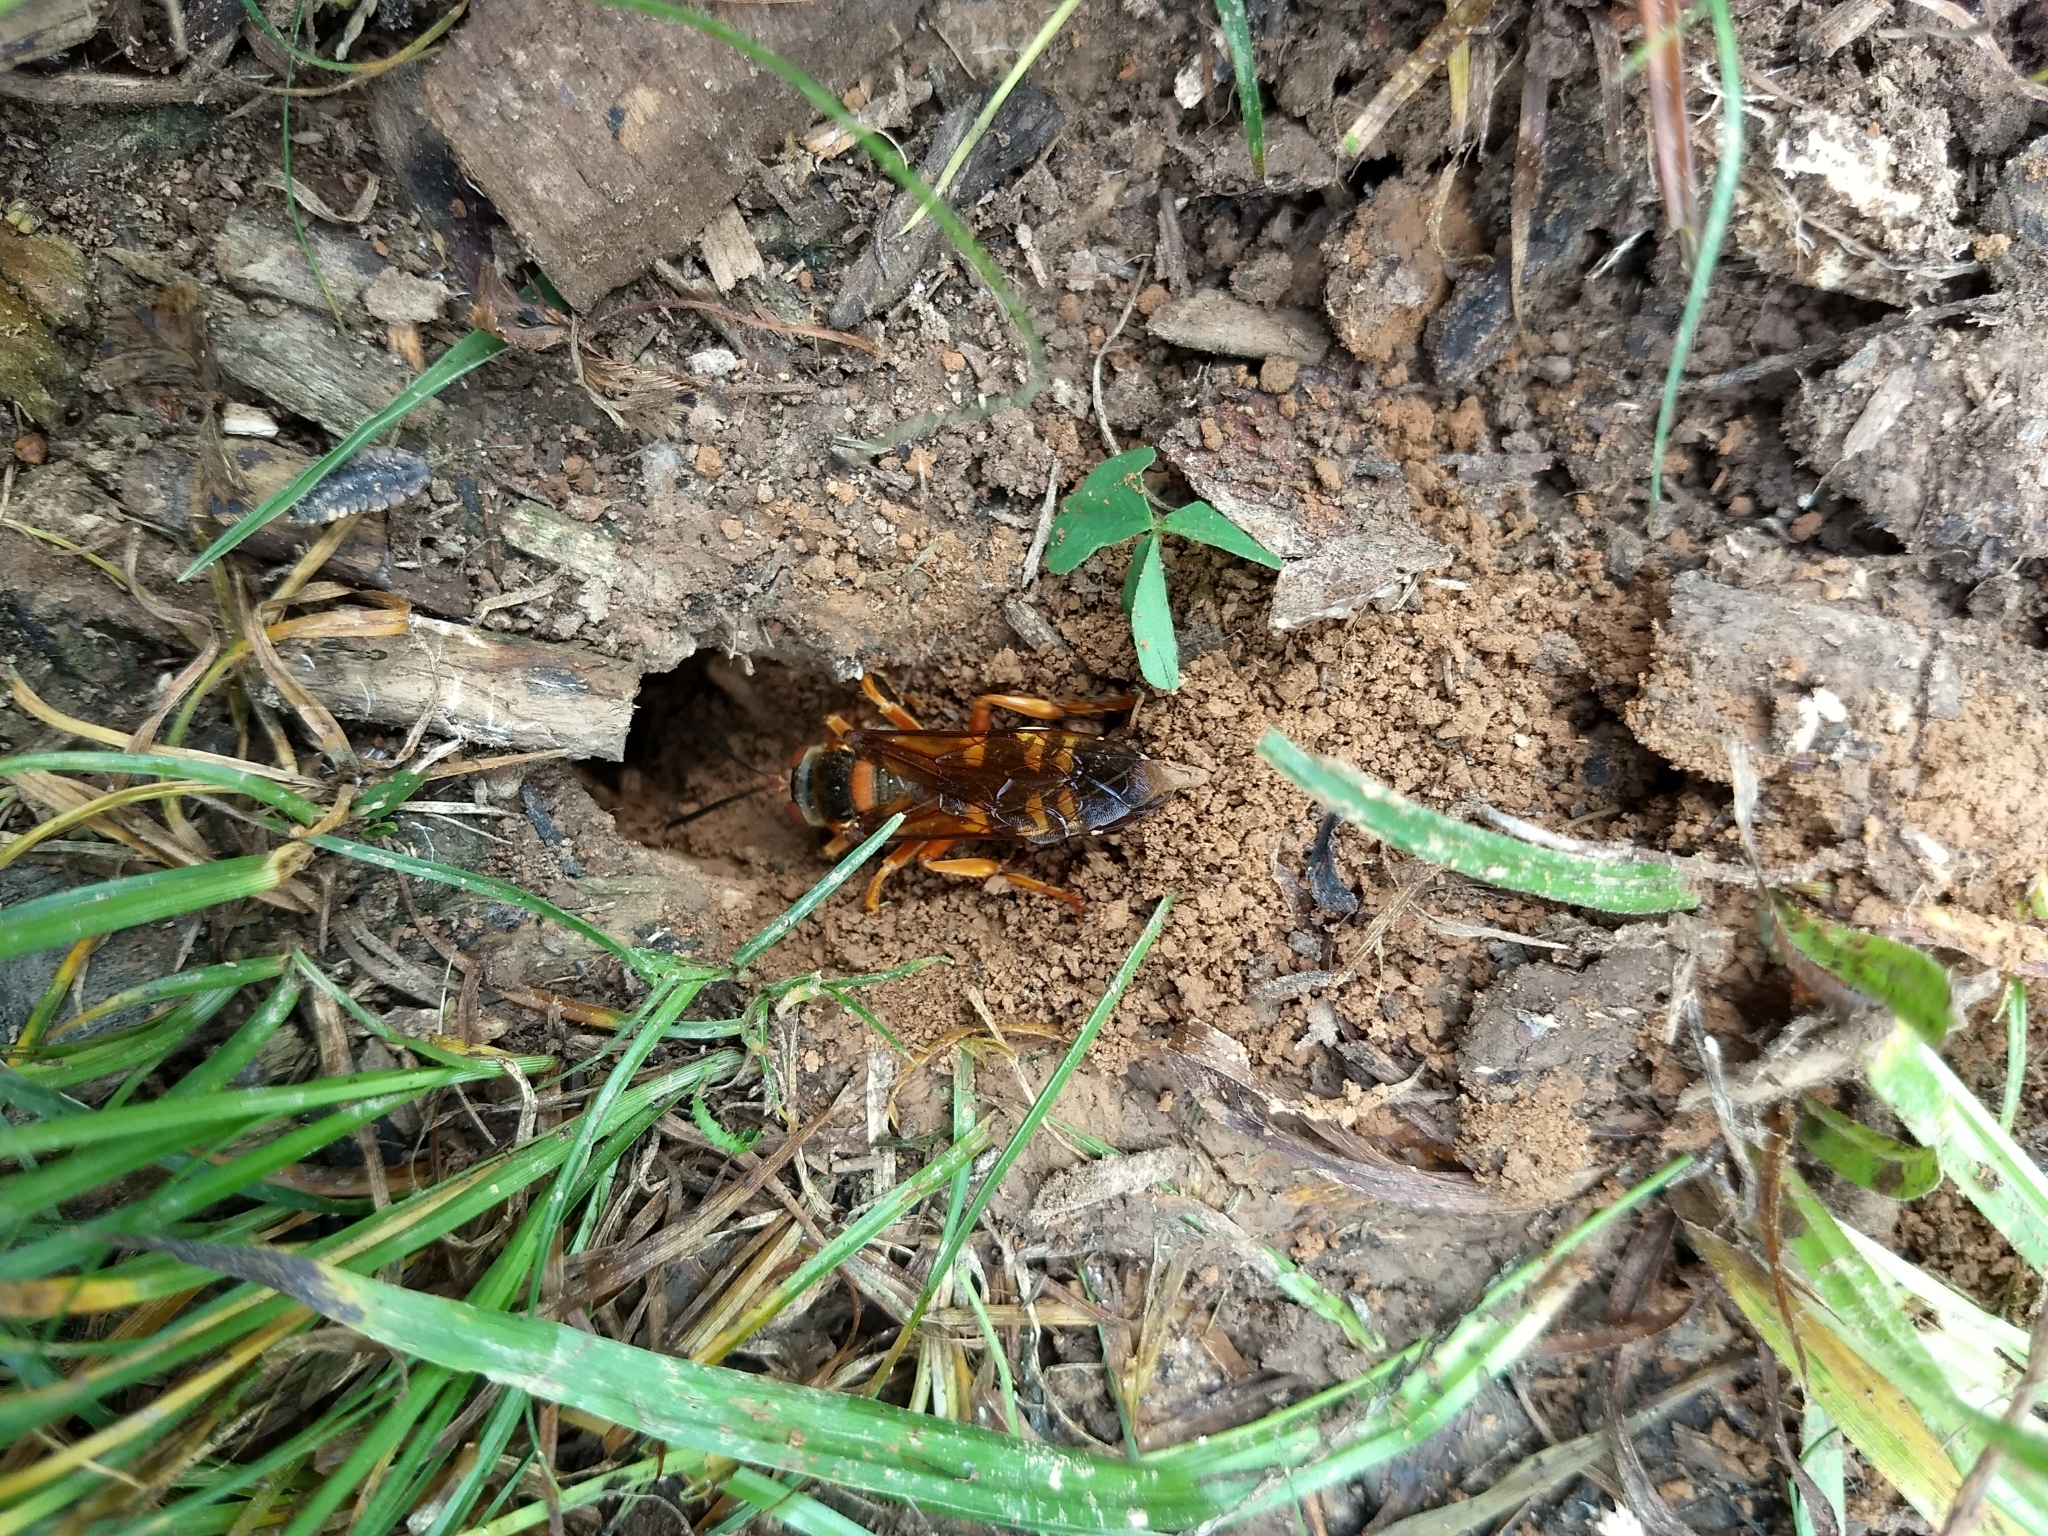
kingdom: Animalia
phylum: Arthropoda
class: Insecta
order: Hymenoptera
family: Crabronidae
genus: Sphecius
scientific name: Sphecius speciosus
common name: Cicada killer
